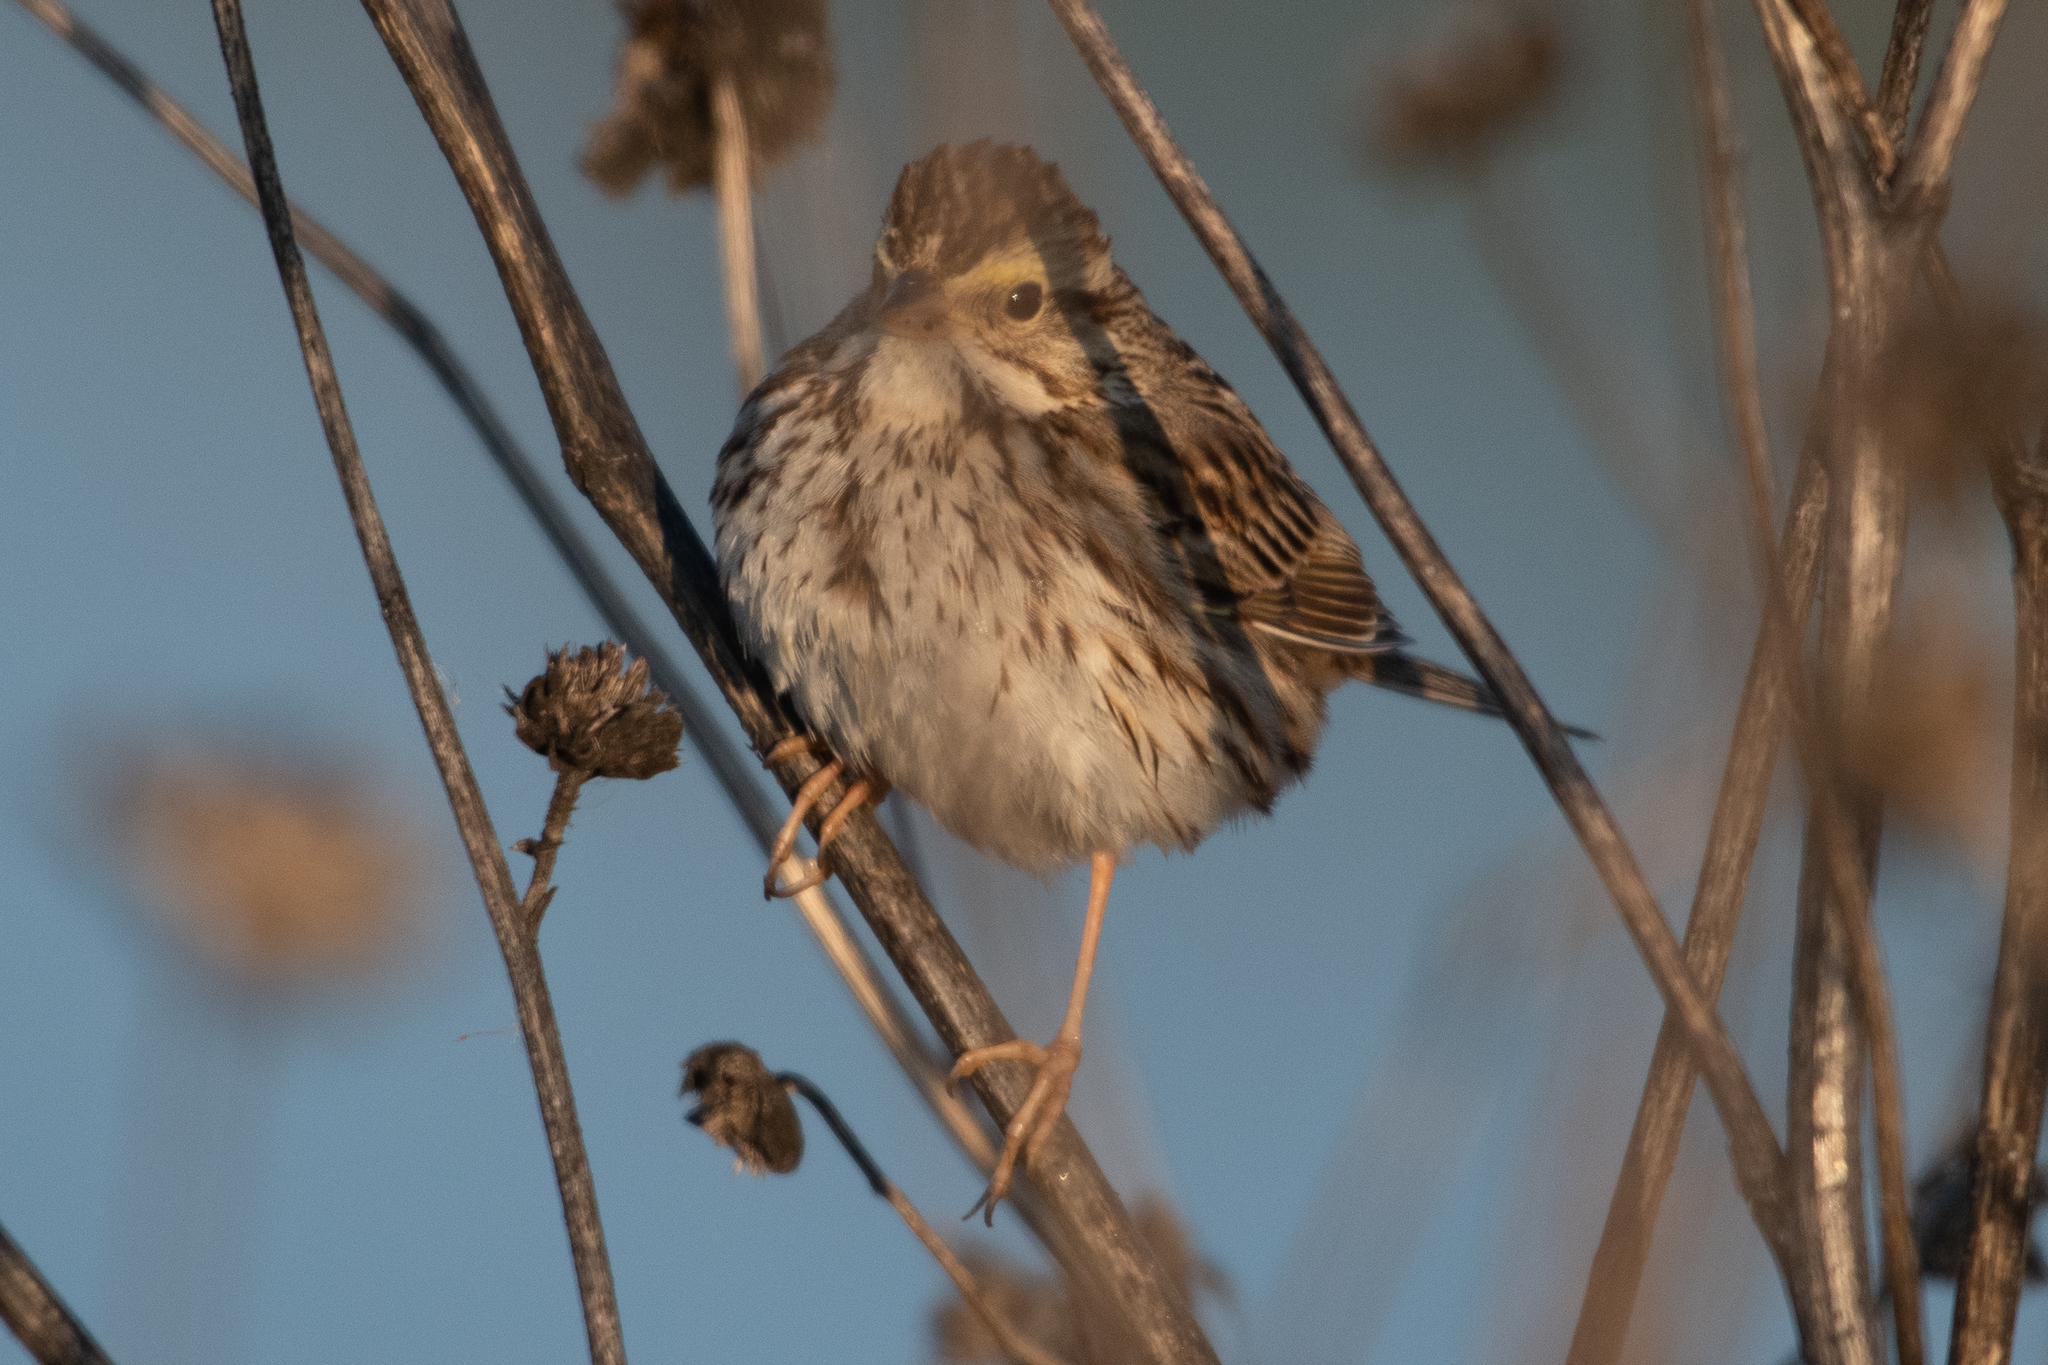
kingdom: Animalia
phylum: Chordata
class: Aves
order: Passeriformes
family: Passerellidae
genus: Passerculus
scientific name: Passerculus sandwichensis
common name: Savannah sparrow
